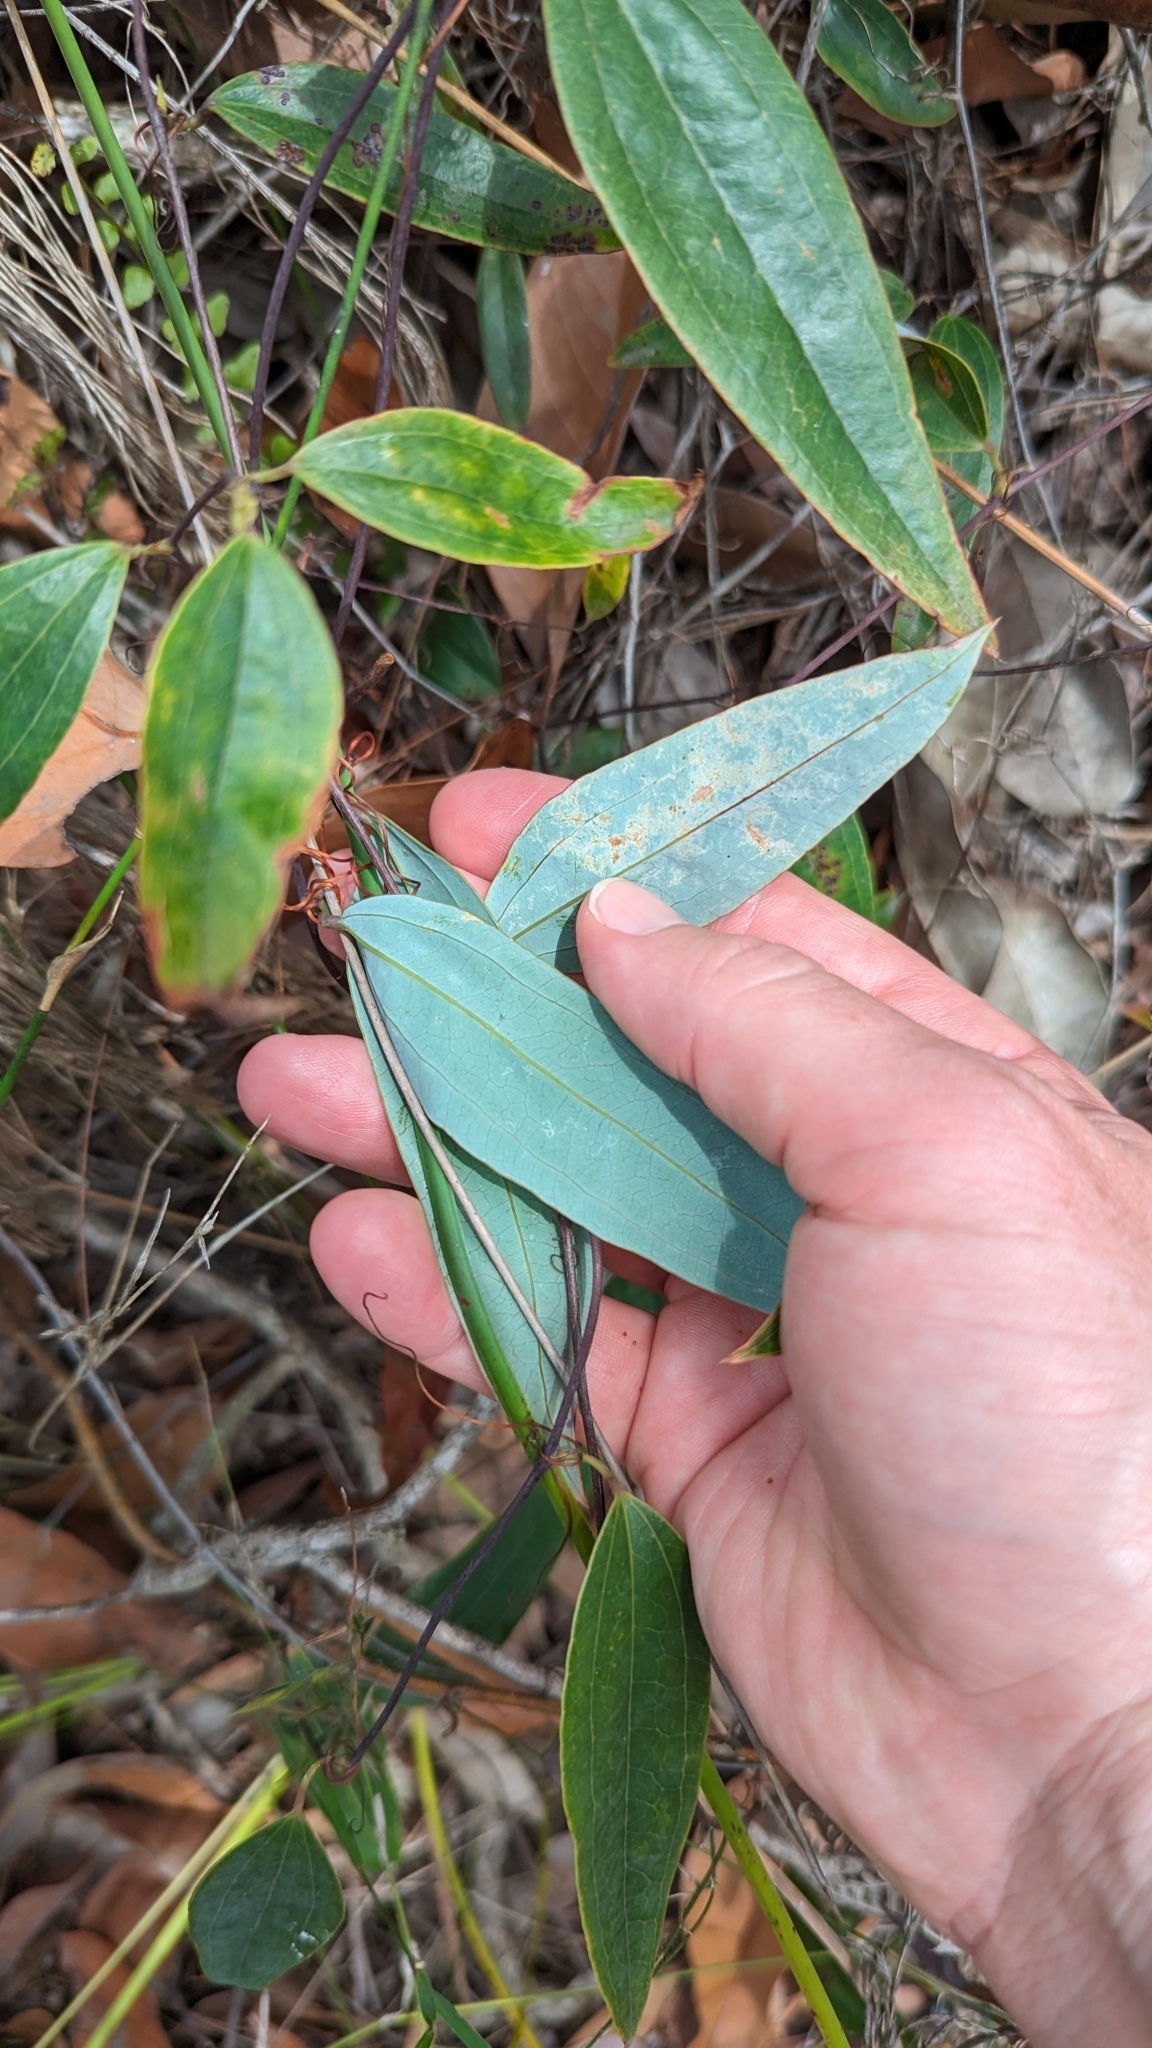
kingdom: Plantae
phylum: Tracheophyta
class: Liliopsida
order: Liliales
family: Smilacaceae
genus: Smilax
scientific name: Smilax glyciphylla
